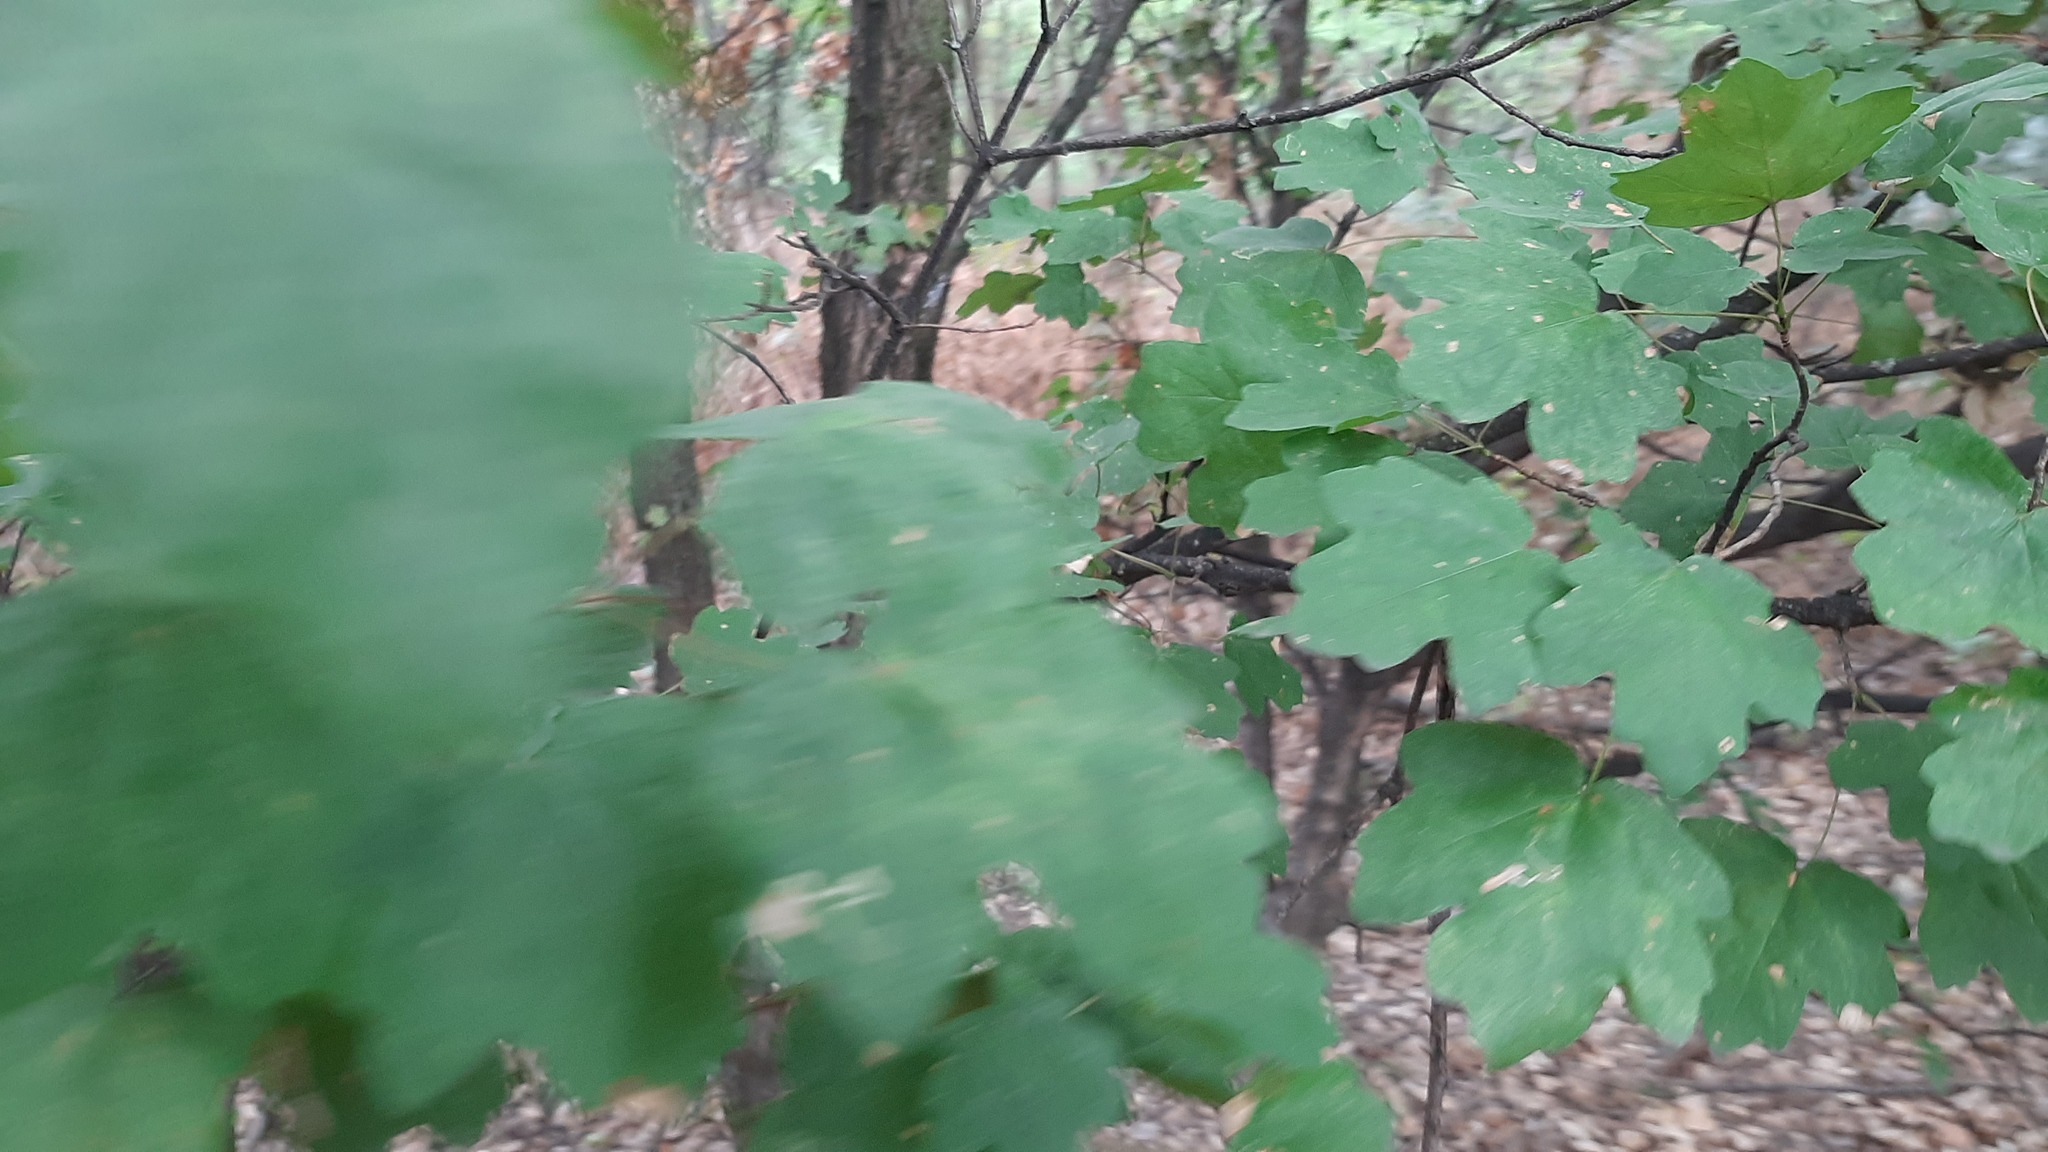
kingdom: Plantae
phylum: Tracheophyta
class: Magnoliopsida
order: Sapindales
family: Sapindaceae
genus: Acer
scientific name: Acer campestre
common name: Field maple
